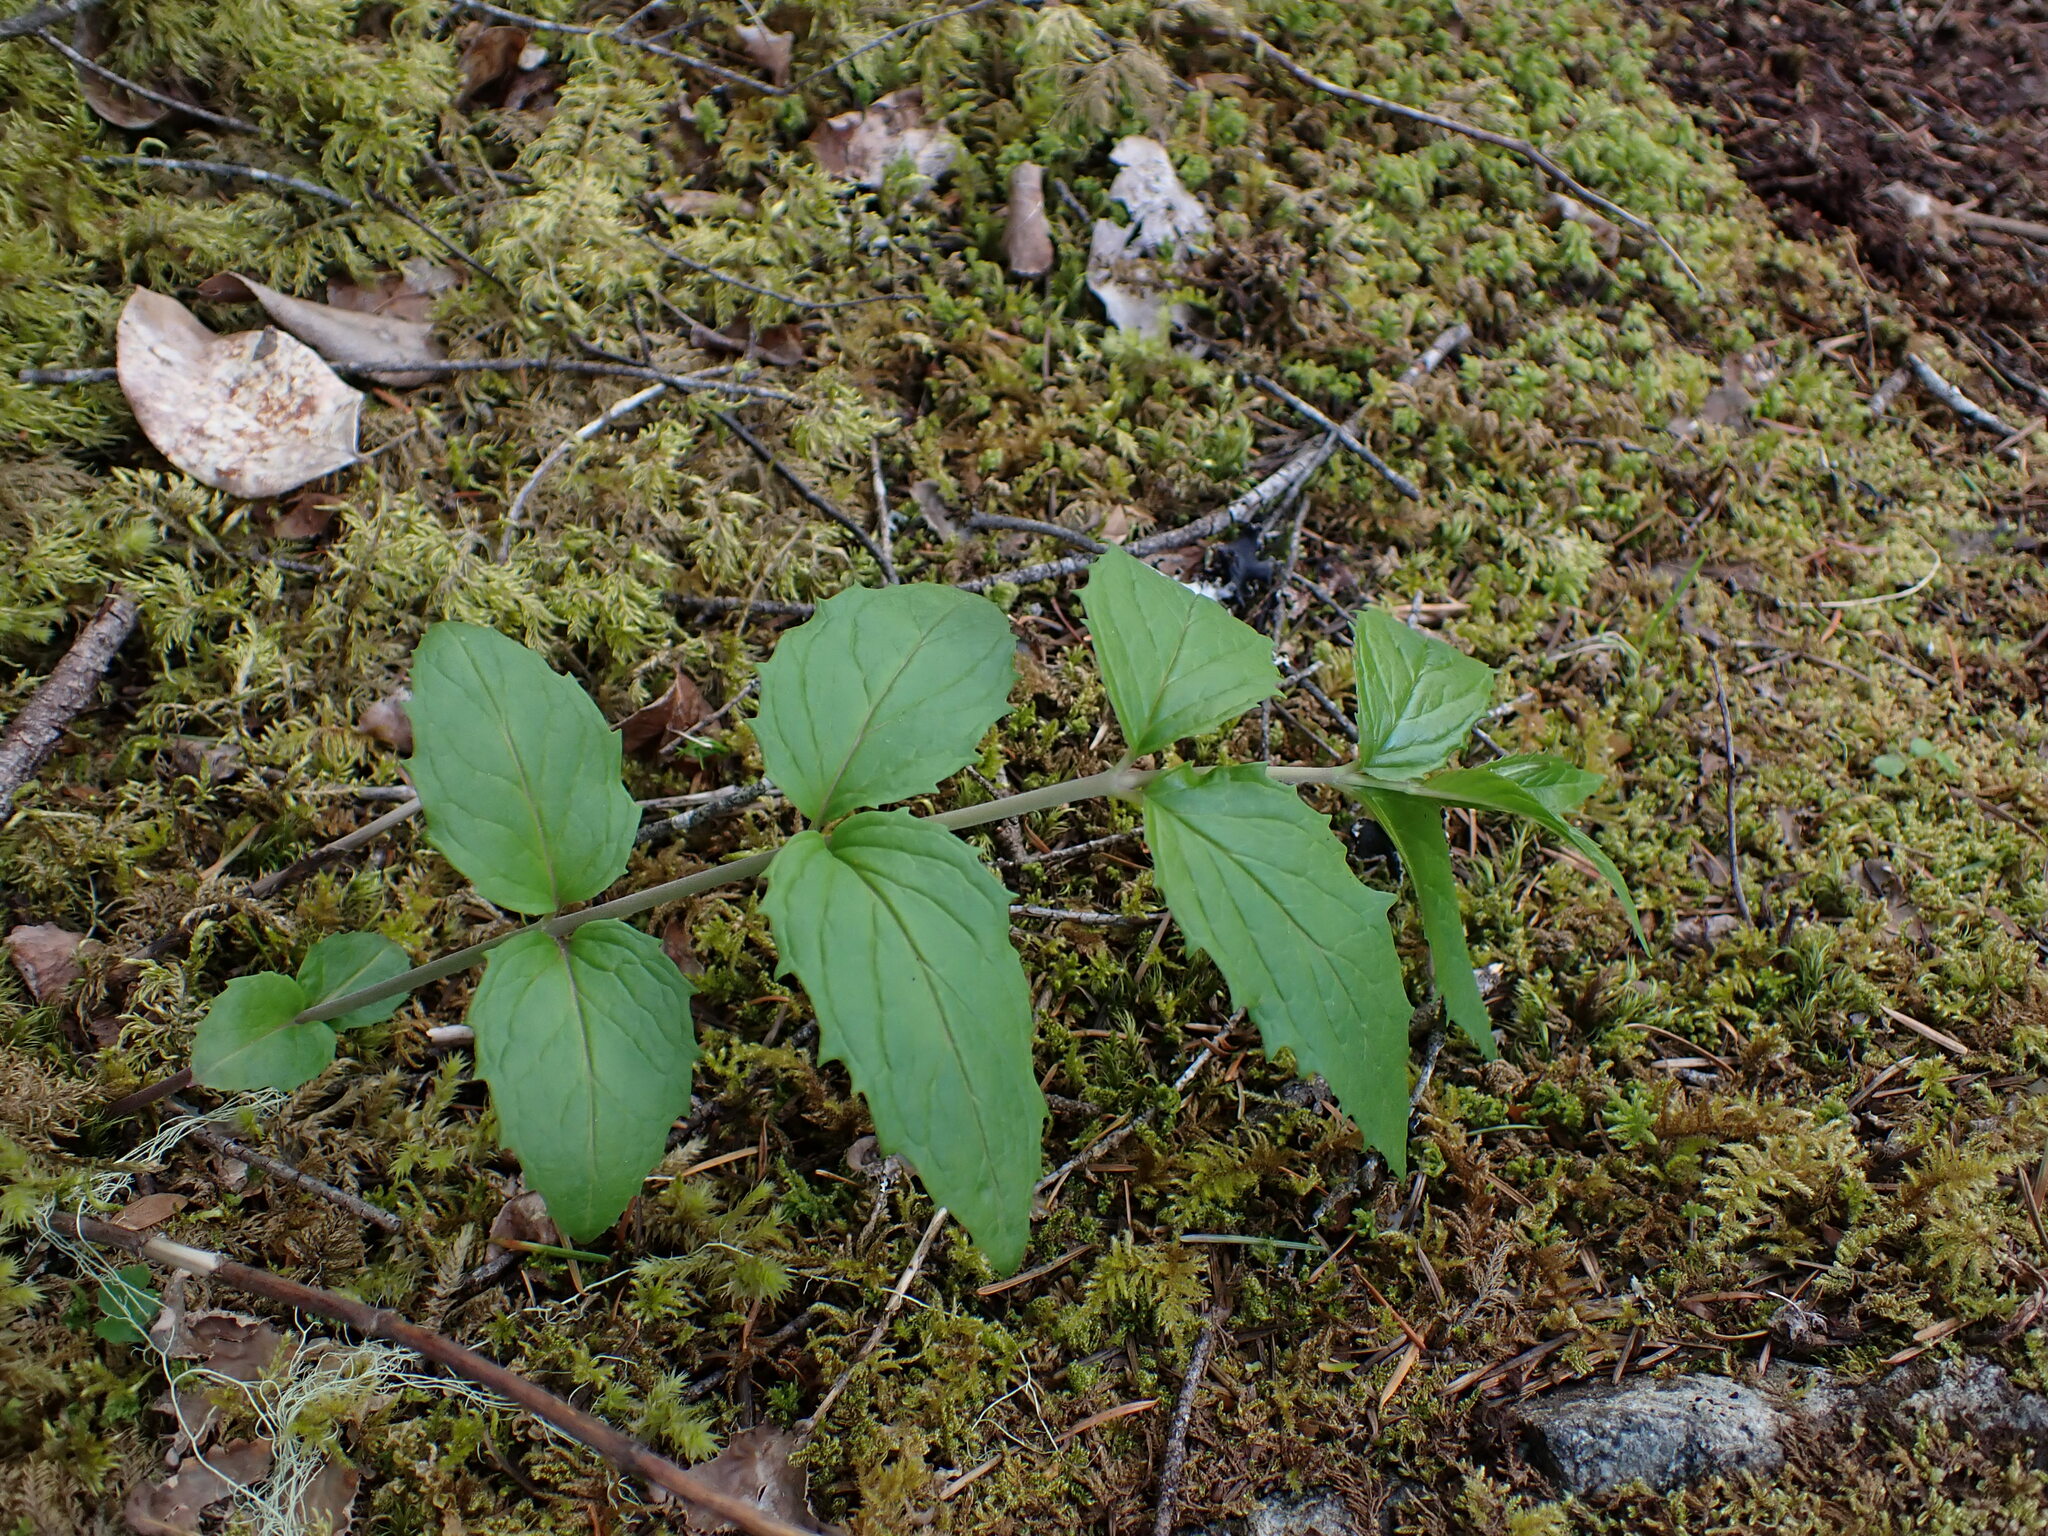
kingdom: Plantae
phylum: Tracheophyta
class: Magnoliopsida
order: Lamiales
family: Plantaginaceae
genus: Nothochelone
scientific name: Nothochelone nemorosa
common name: Woodland beardtongue
